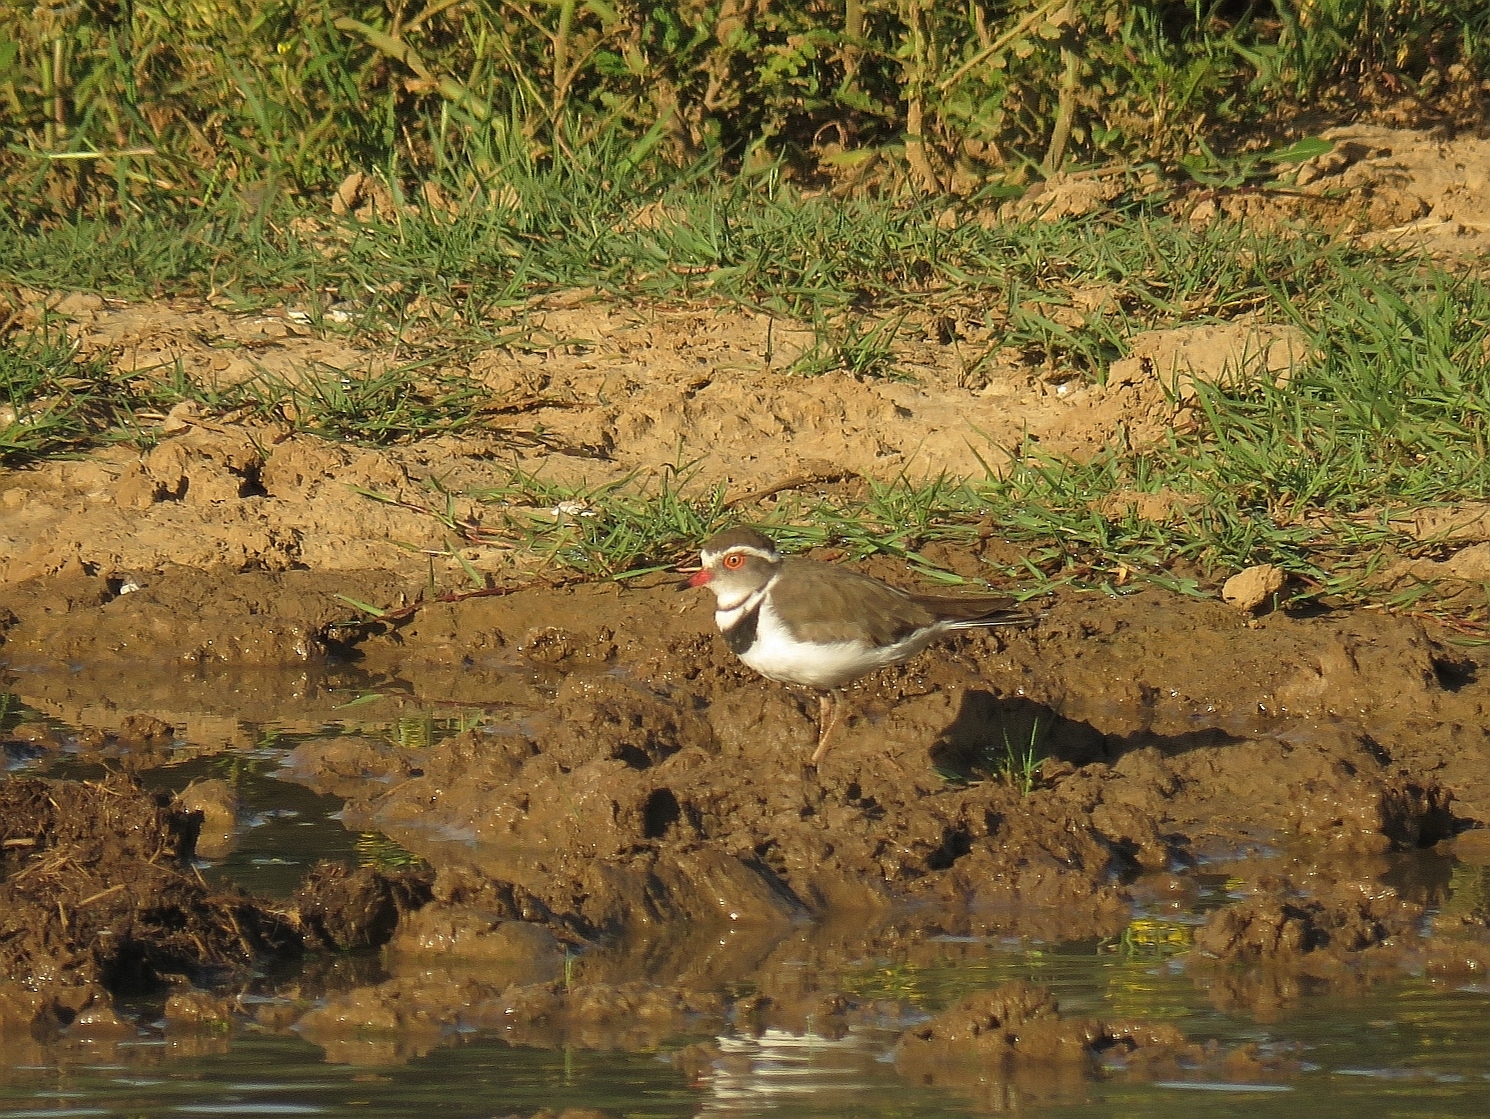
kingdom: Animalia
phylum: Chordata
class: Aves
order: Charadriiformes
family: Charadriidae
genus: Charadrius
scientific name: Charadrius tricollaris
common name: Three-banded plover
